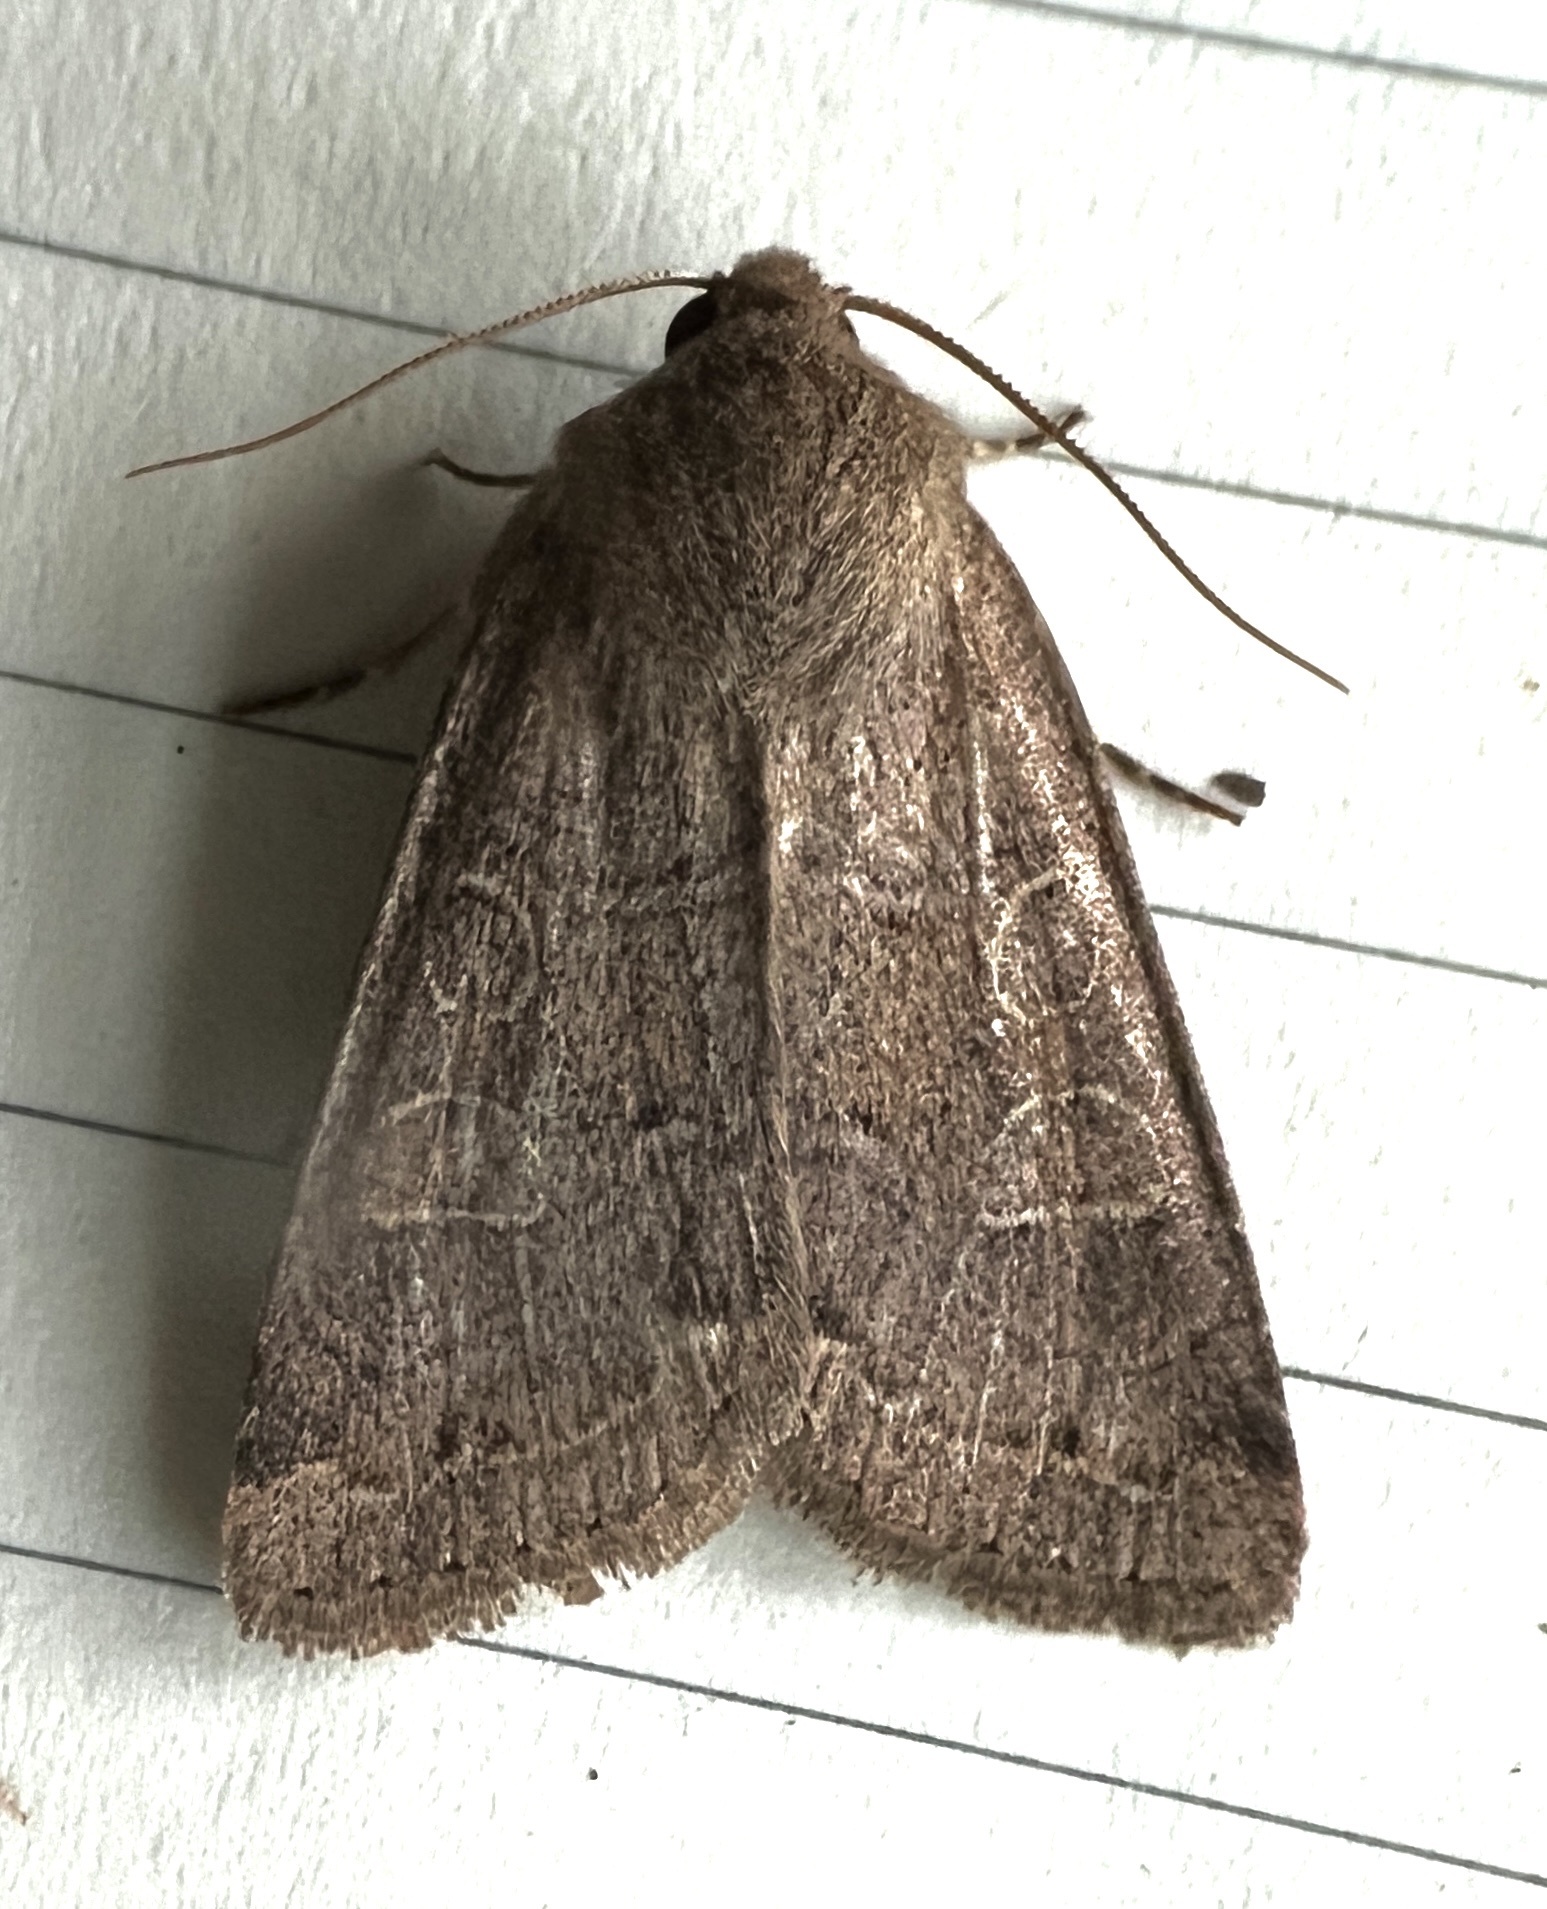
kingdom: Animalia
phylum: Arthropoda
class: Insecta
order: Lepidoptera
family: Noctuidae
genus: Kocakina
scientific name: Kocakina fidelis
